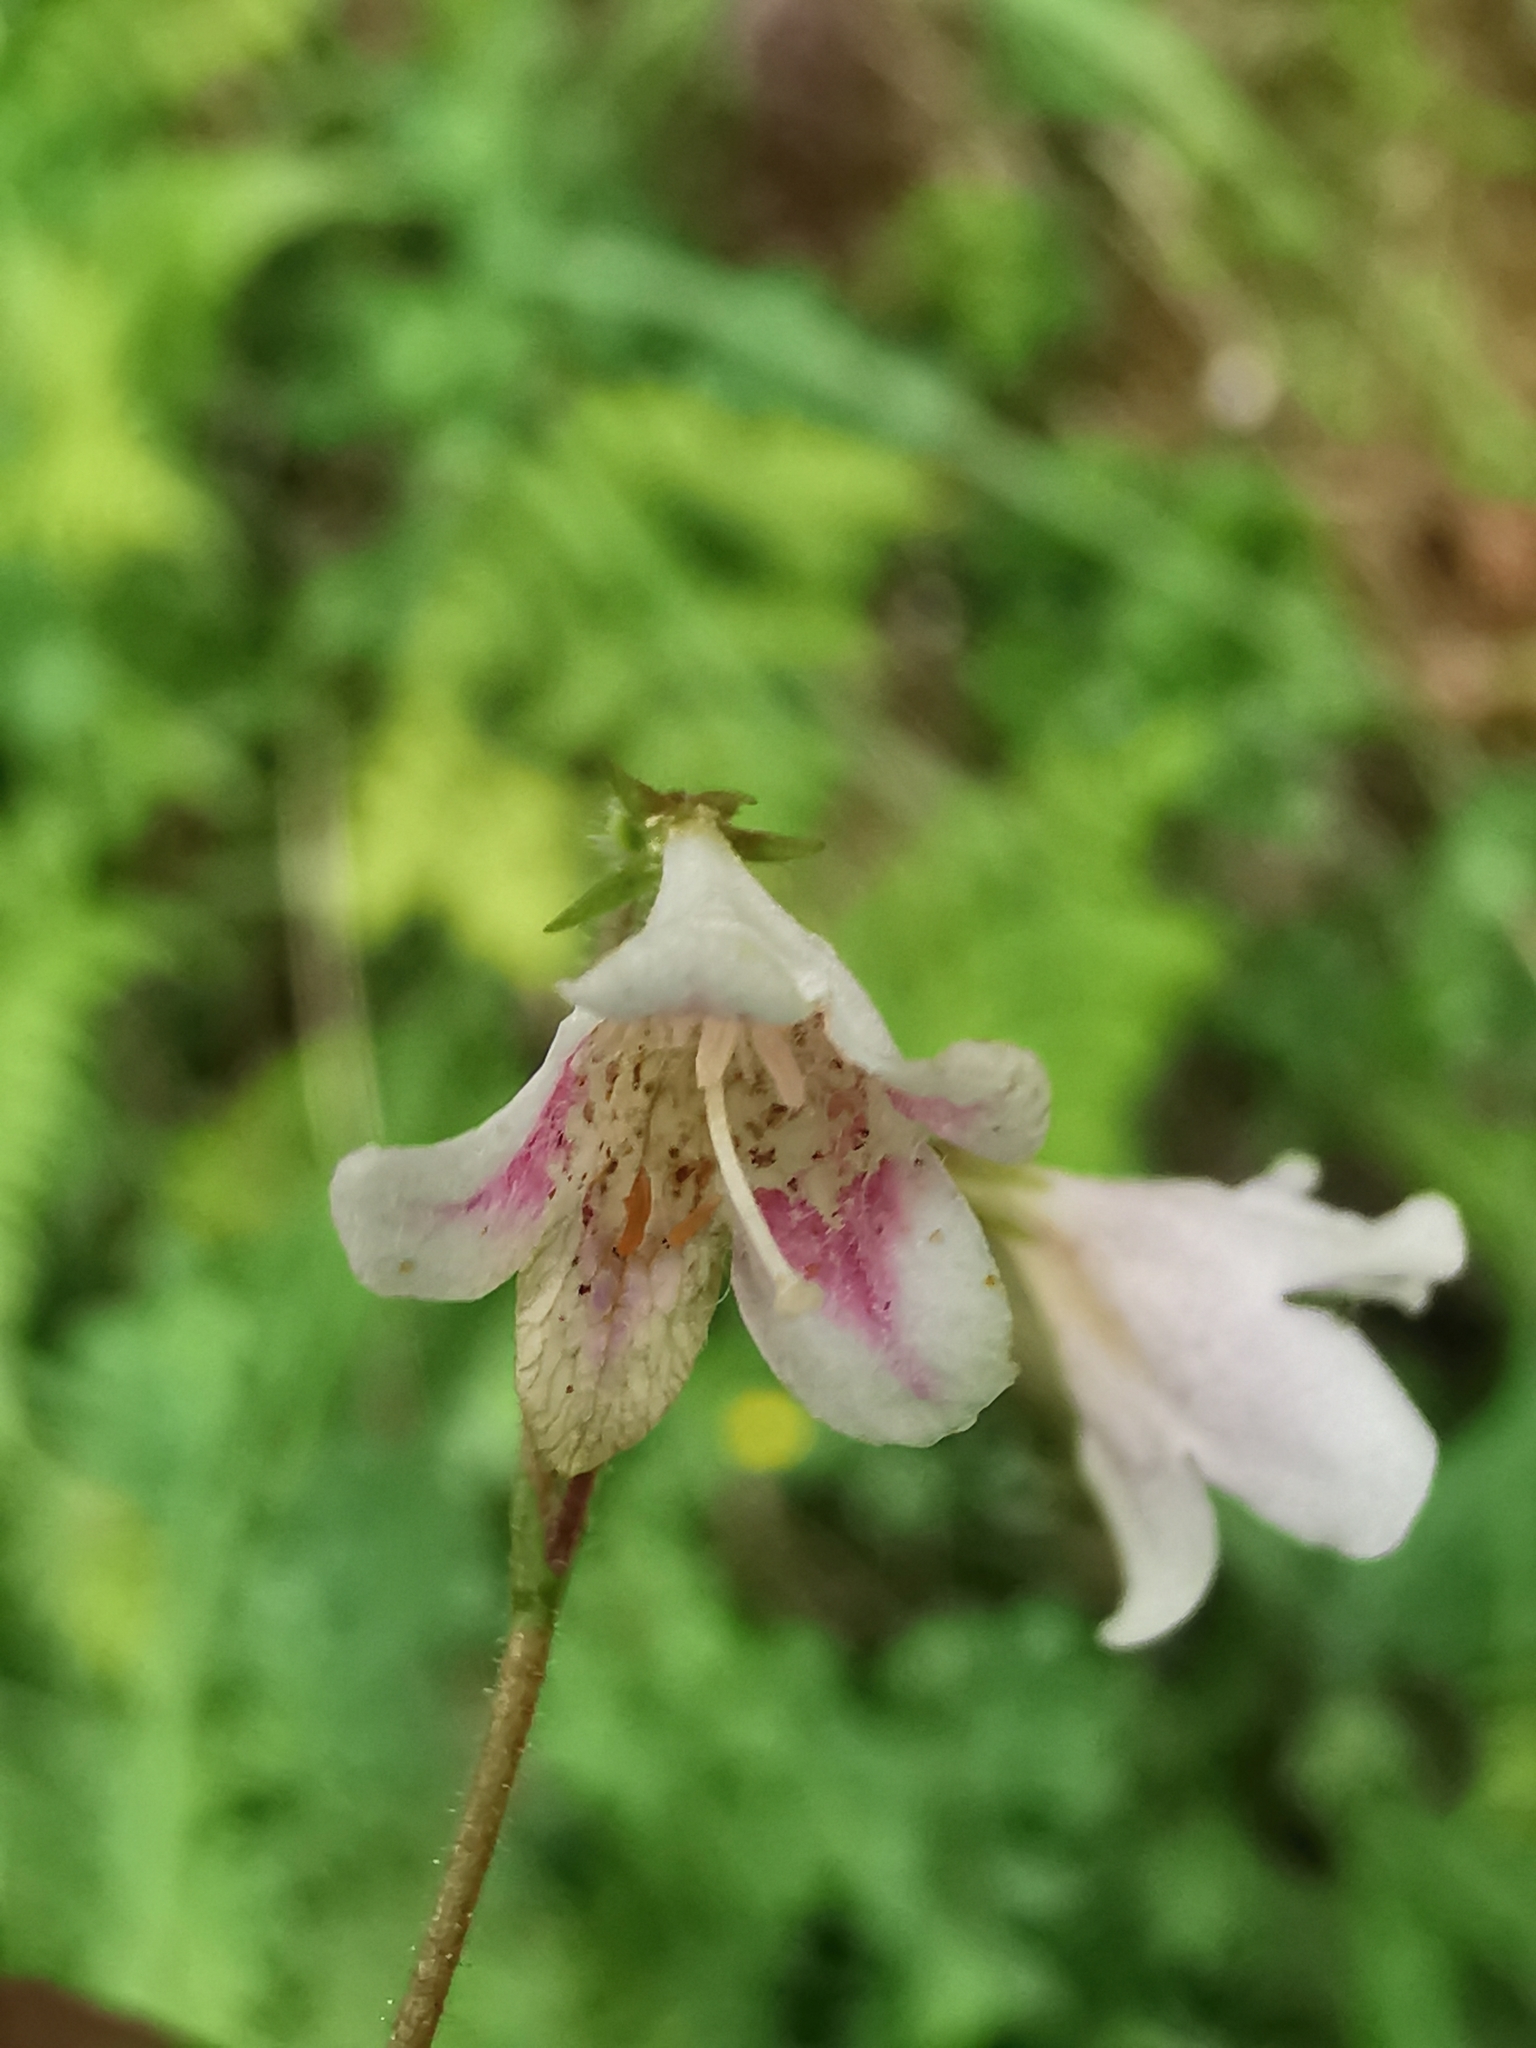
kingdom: Plantae
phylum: Tracheophyta
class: Magnoliopsida
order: Dipsacales
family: Caprifoliaceae
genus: Linnaea
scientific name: Linnaea borealis
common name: Twinflower
